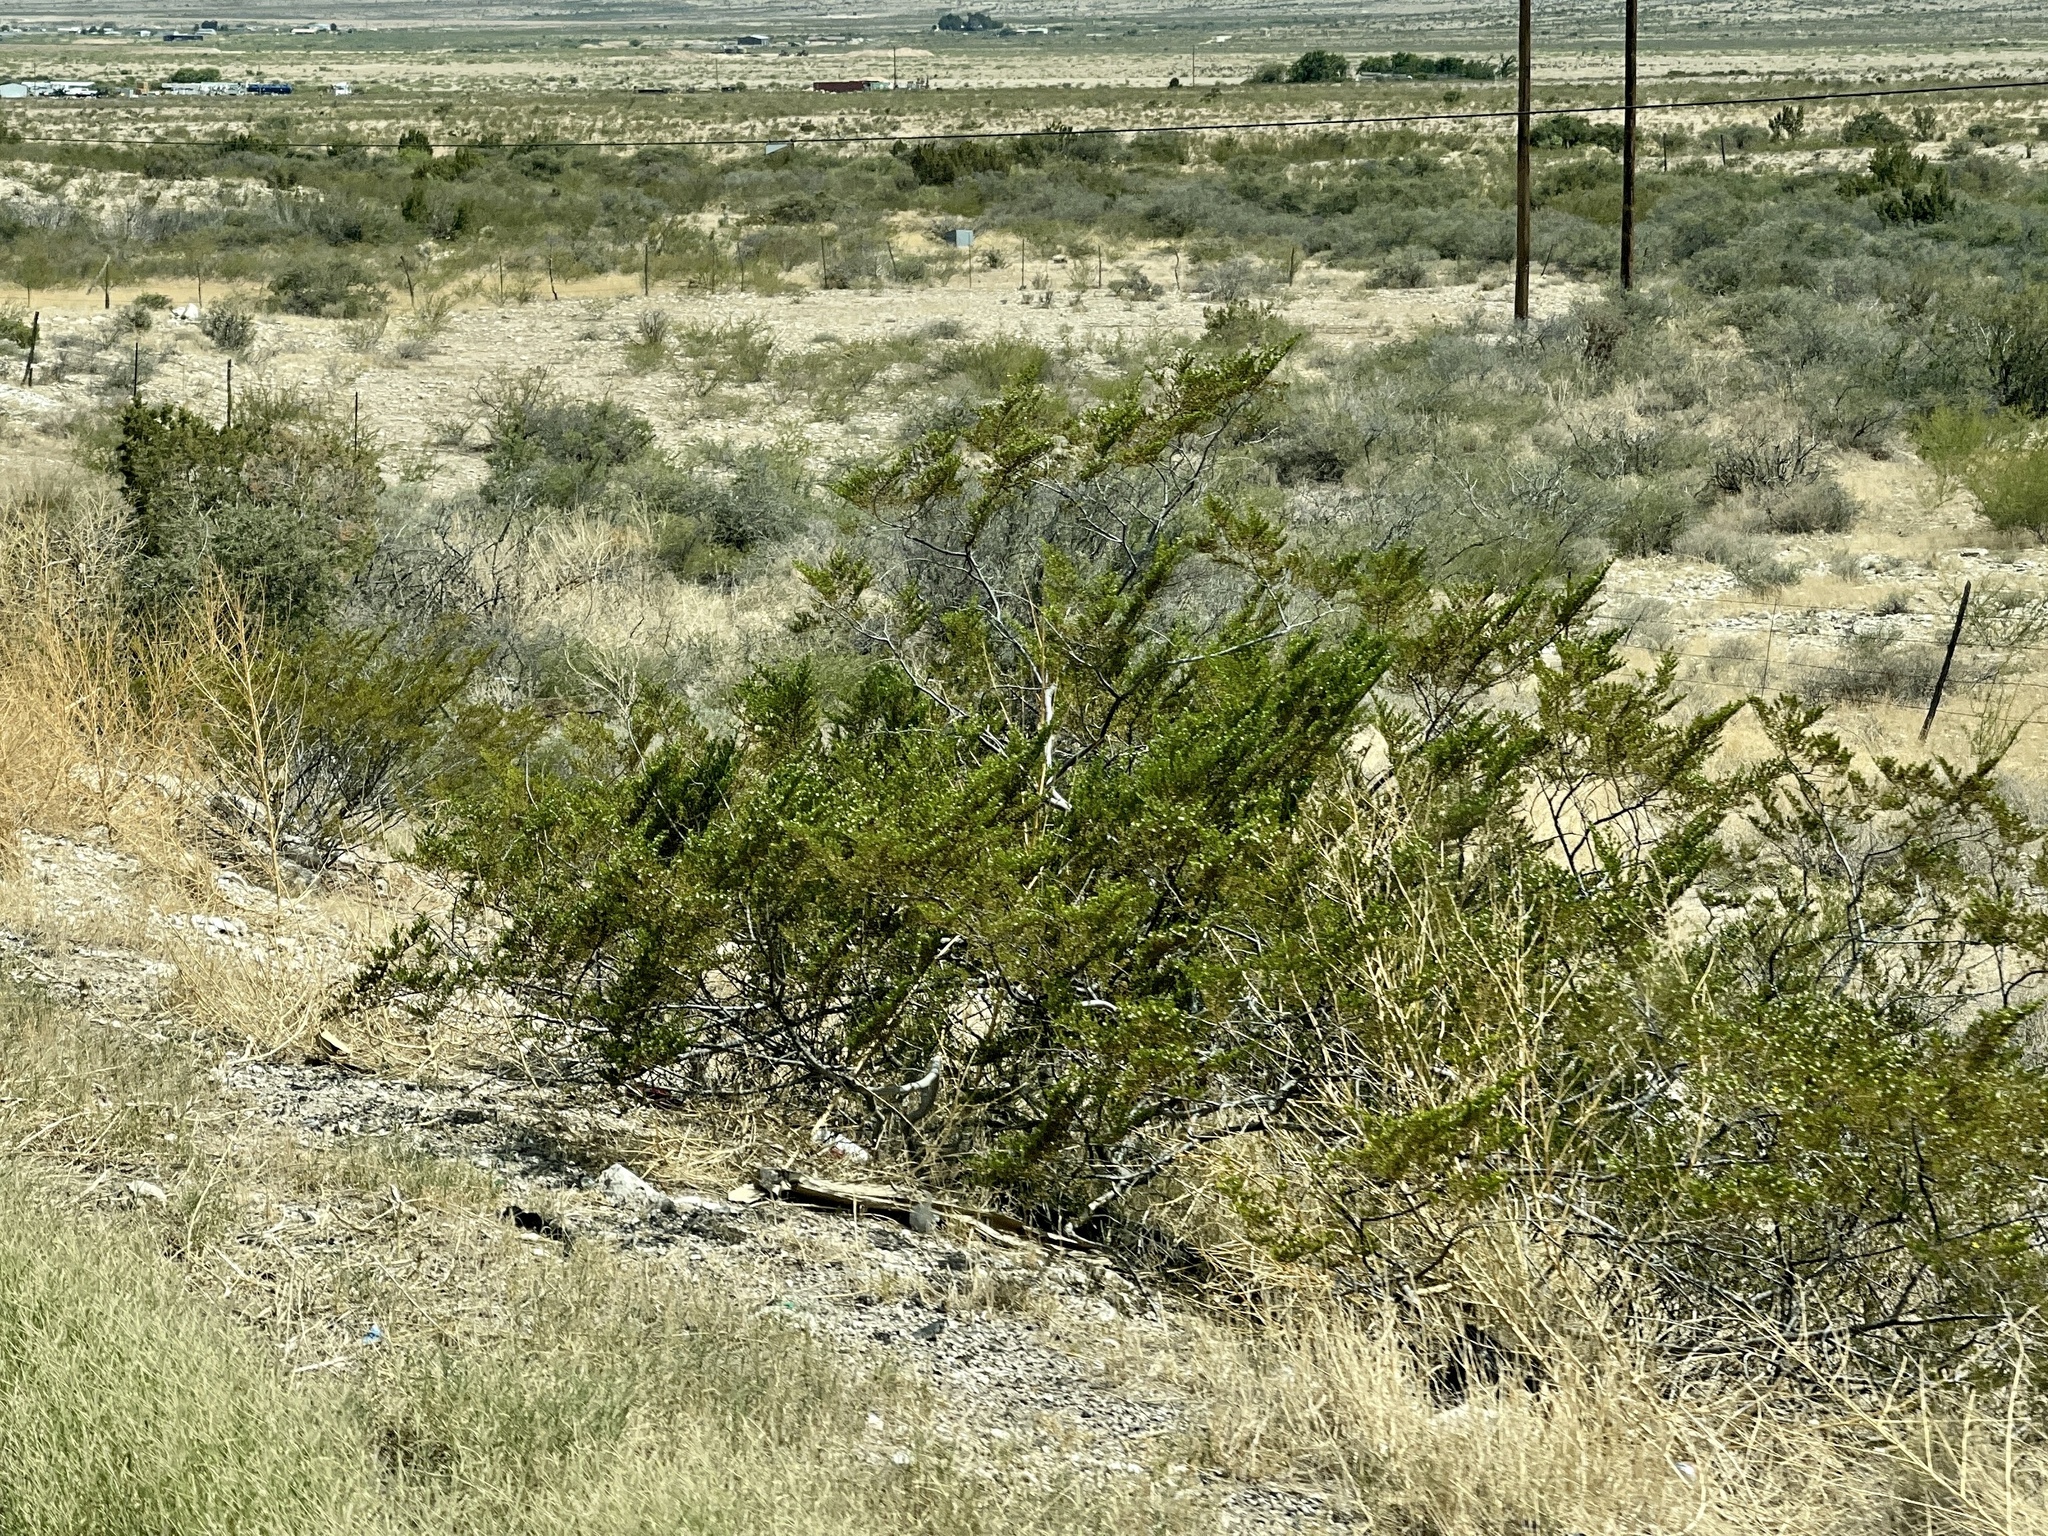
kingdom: Plantae
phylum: Tracheophyta
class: Magnoliopsida
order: Zygophyllales
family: Zygophyllaceae
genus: Larrea
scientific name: Larrea tridentata
